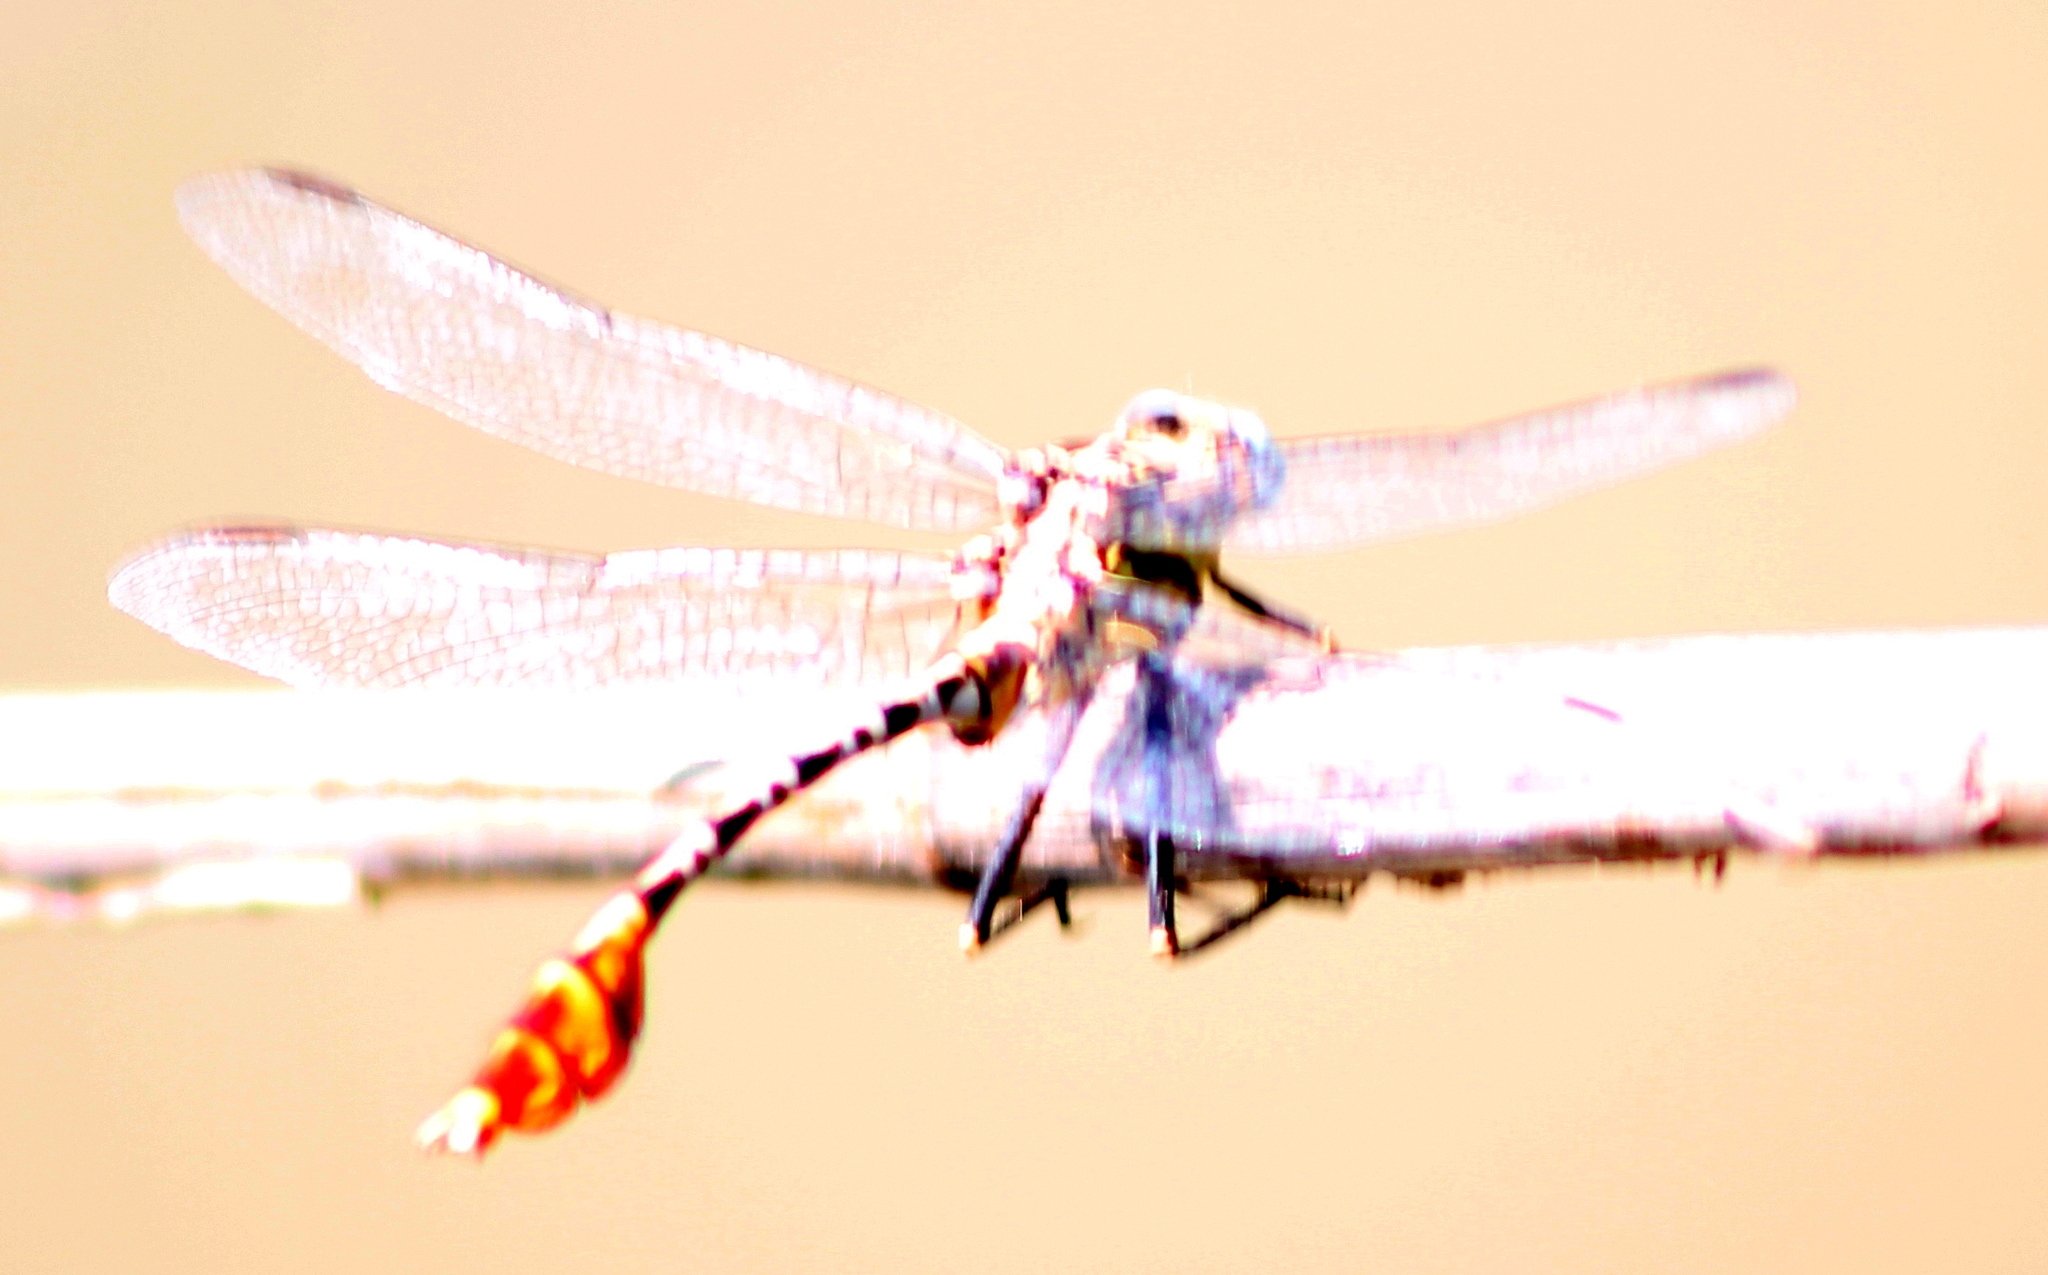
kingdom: Animalia
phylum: Arthropoda
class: Insecta
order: Odonata
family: Gomphidae
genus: Dromogomphus
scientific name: Dromogomphus spoliatus
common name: Flag-tailed spinyleg
